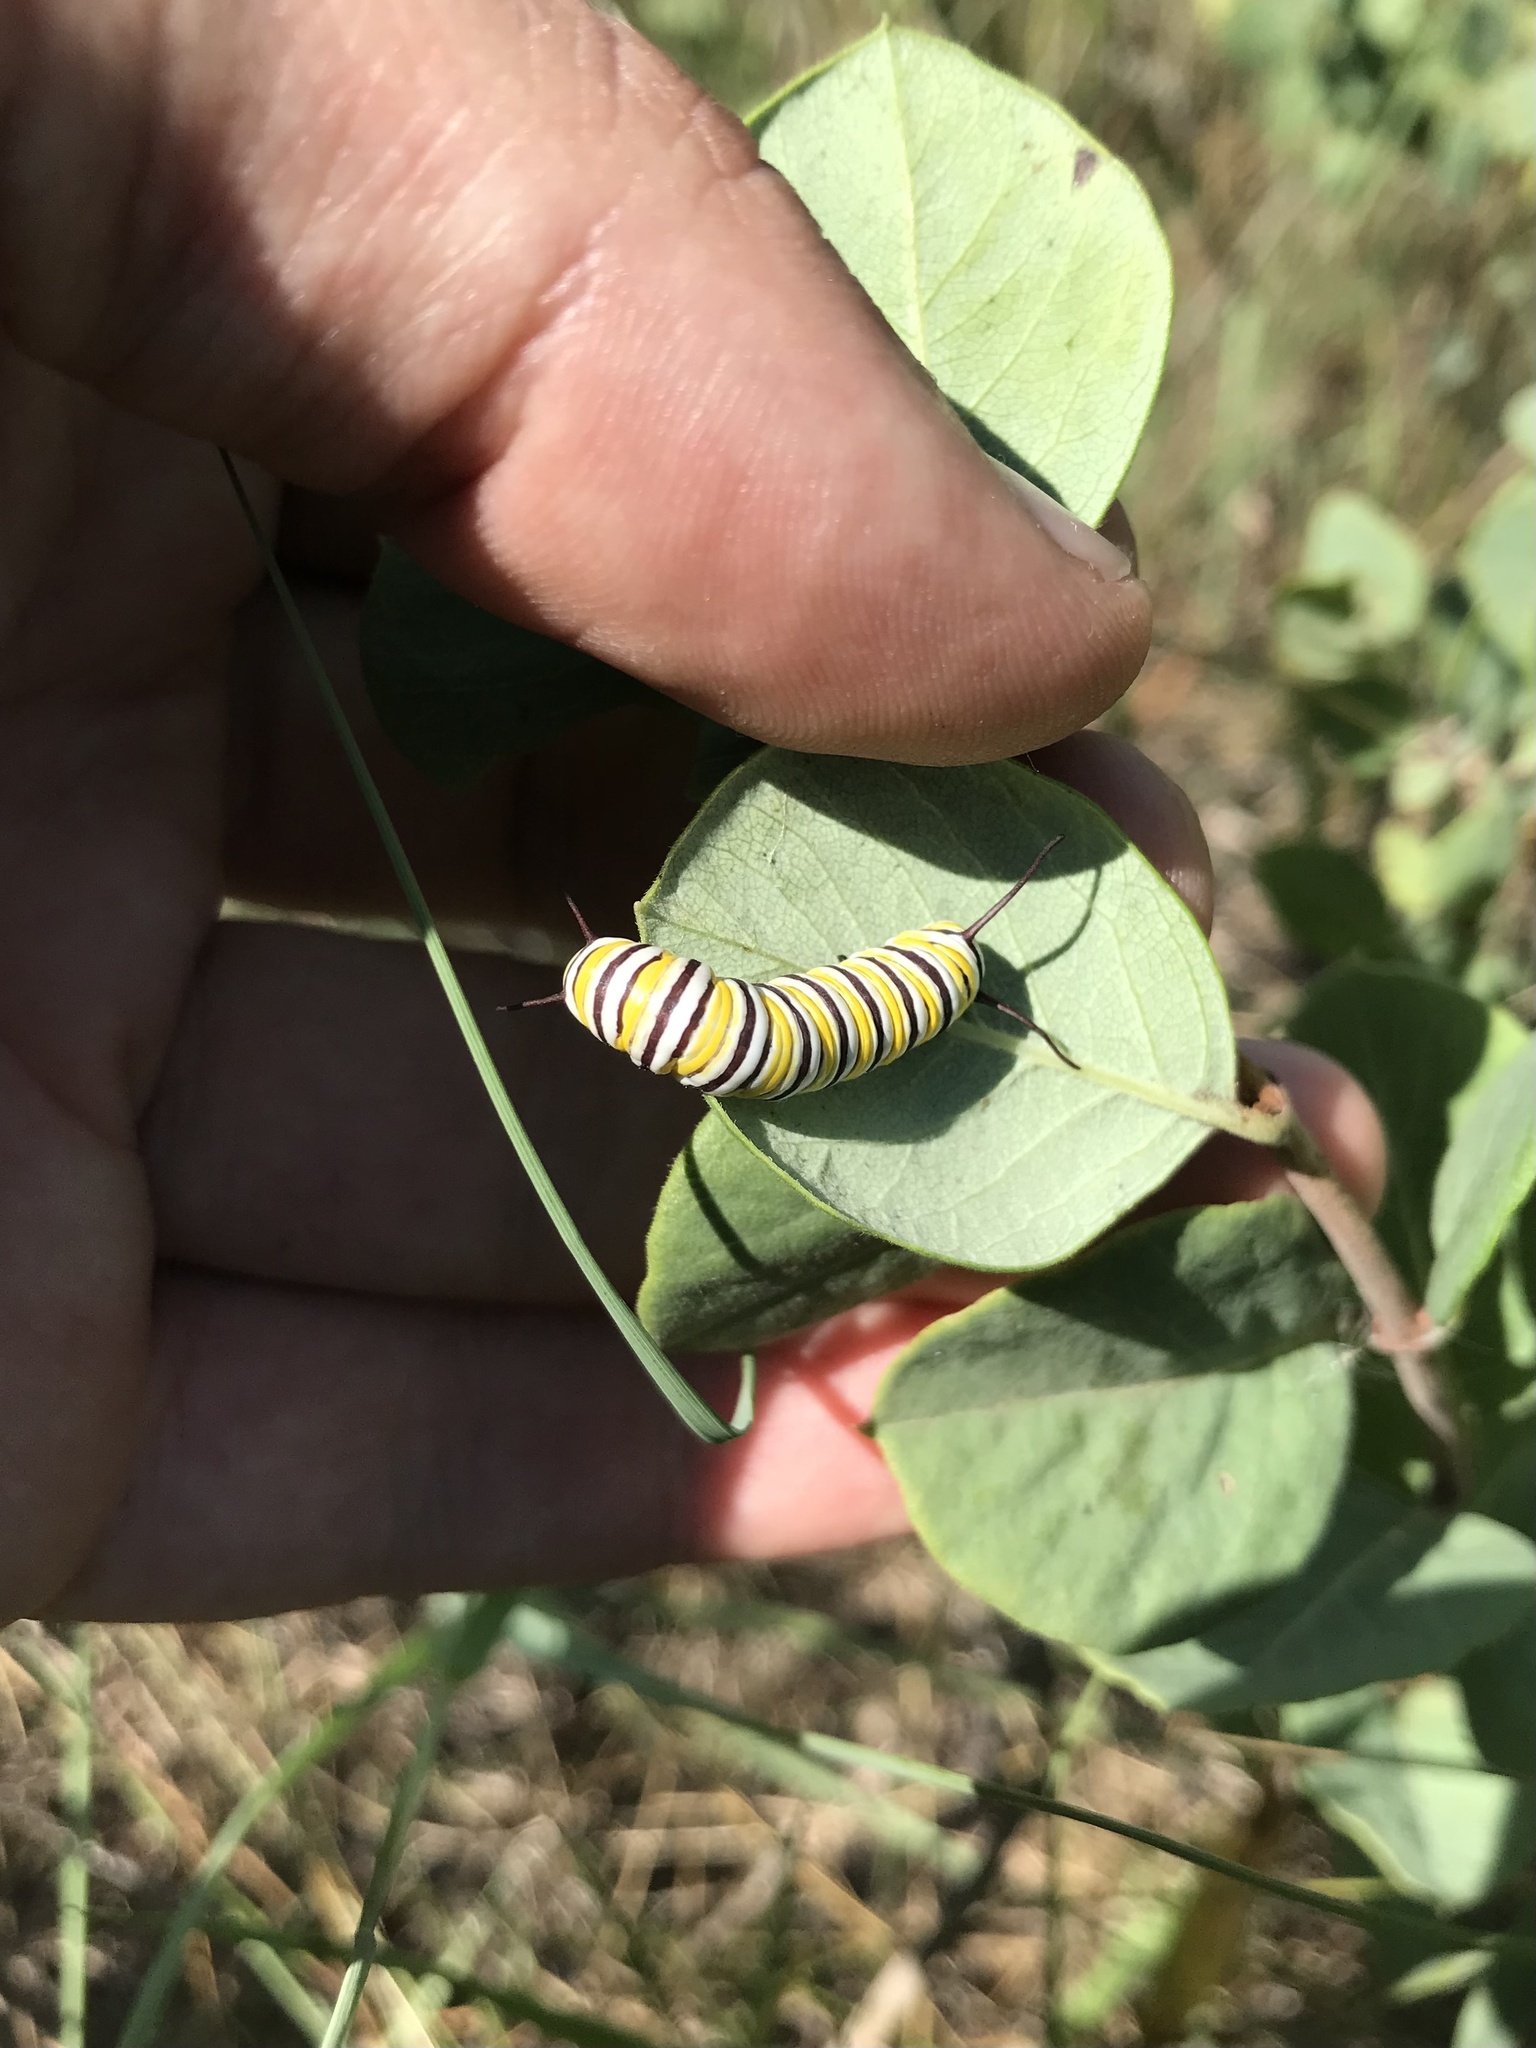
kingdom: Animalia
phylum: Arthropoda
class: Insecta
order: Lepidoptera
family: Nymphalidae
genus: Danaus
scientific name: Danaus plexippus
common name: Monarch
